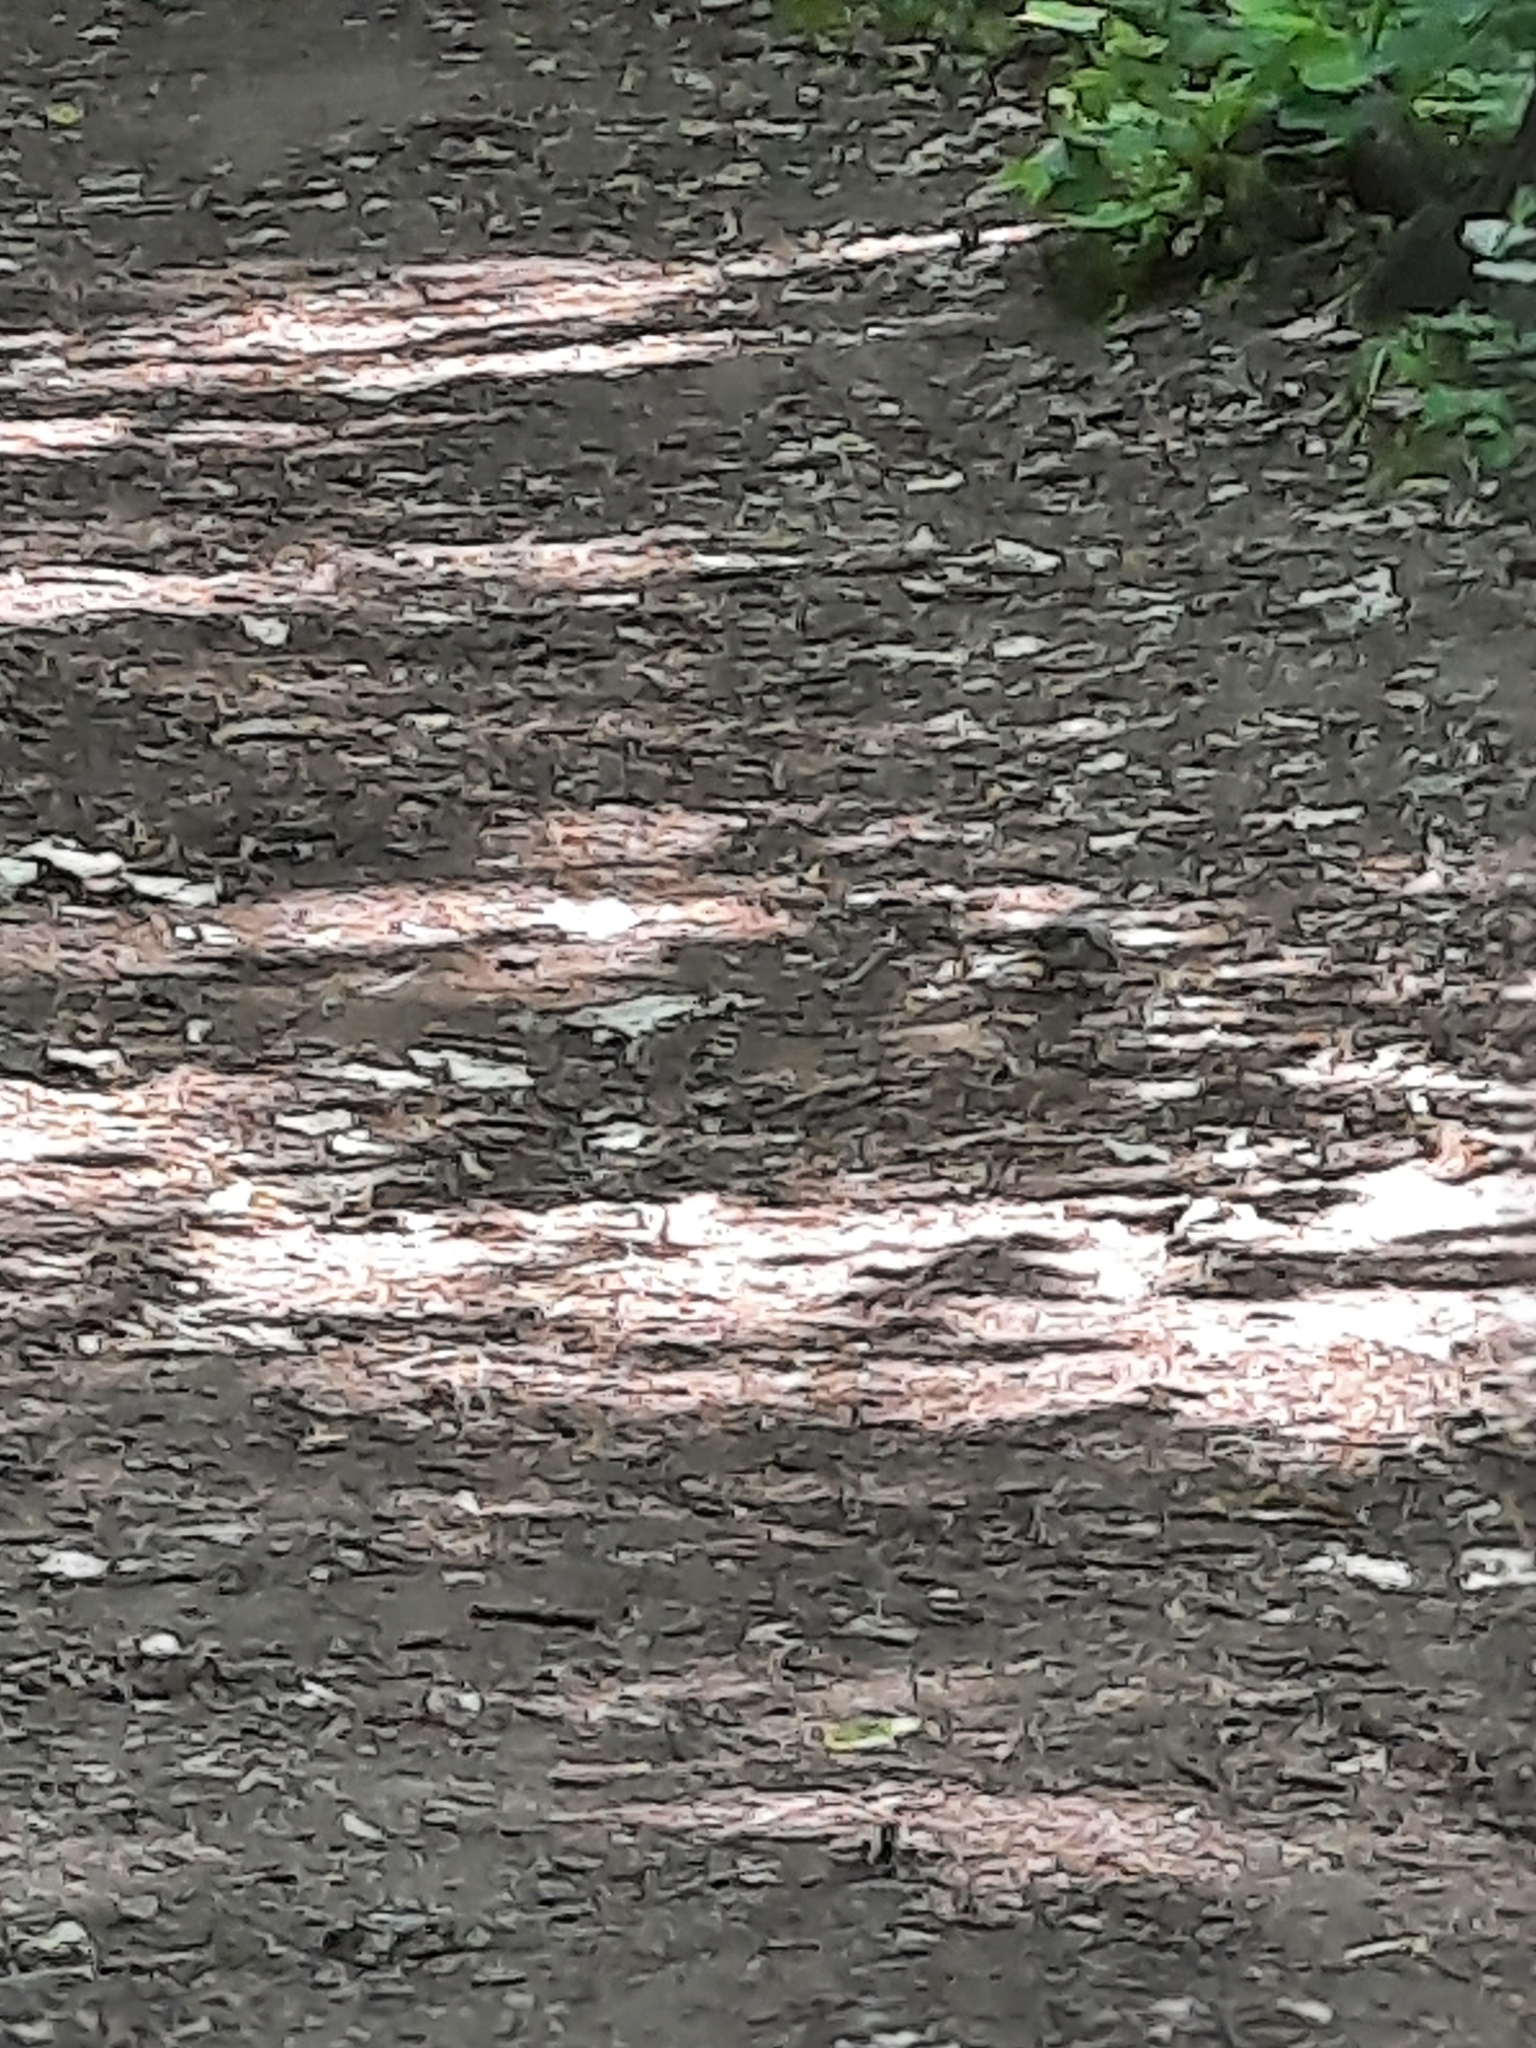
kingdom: Animalia
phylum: Chordata
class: Aves
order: Passeriformes
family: Sittidae
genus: Sitta
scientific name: Sitta europaea
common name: Eurasian nuthatch
